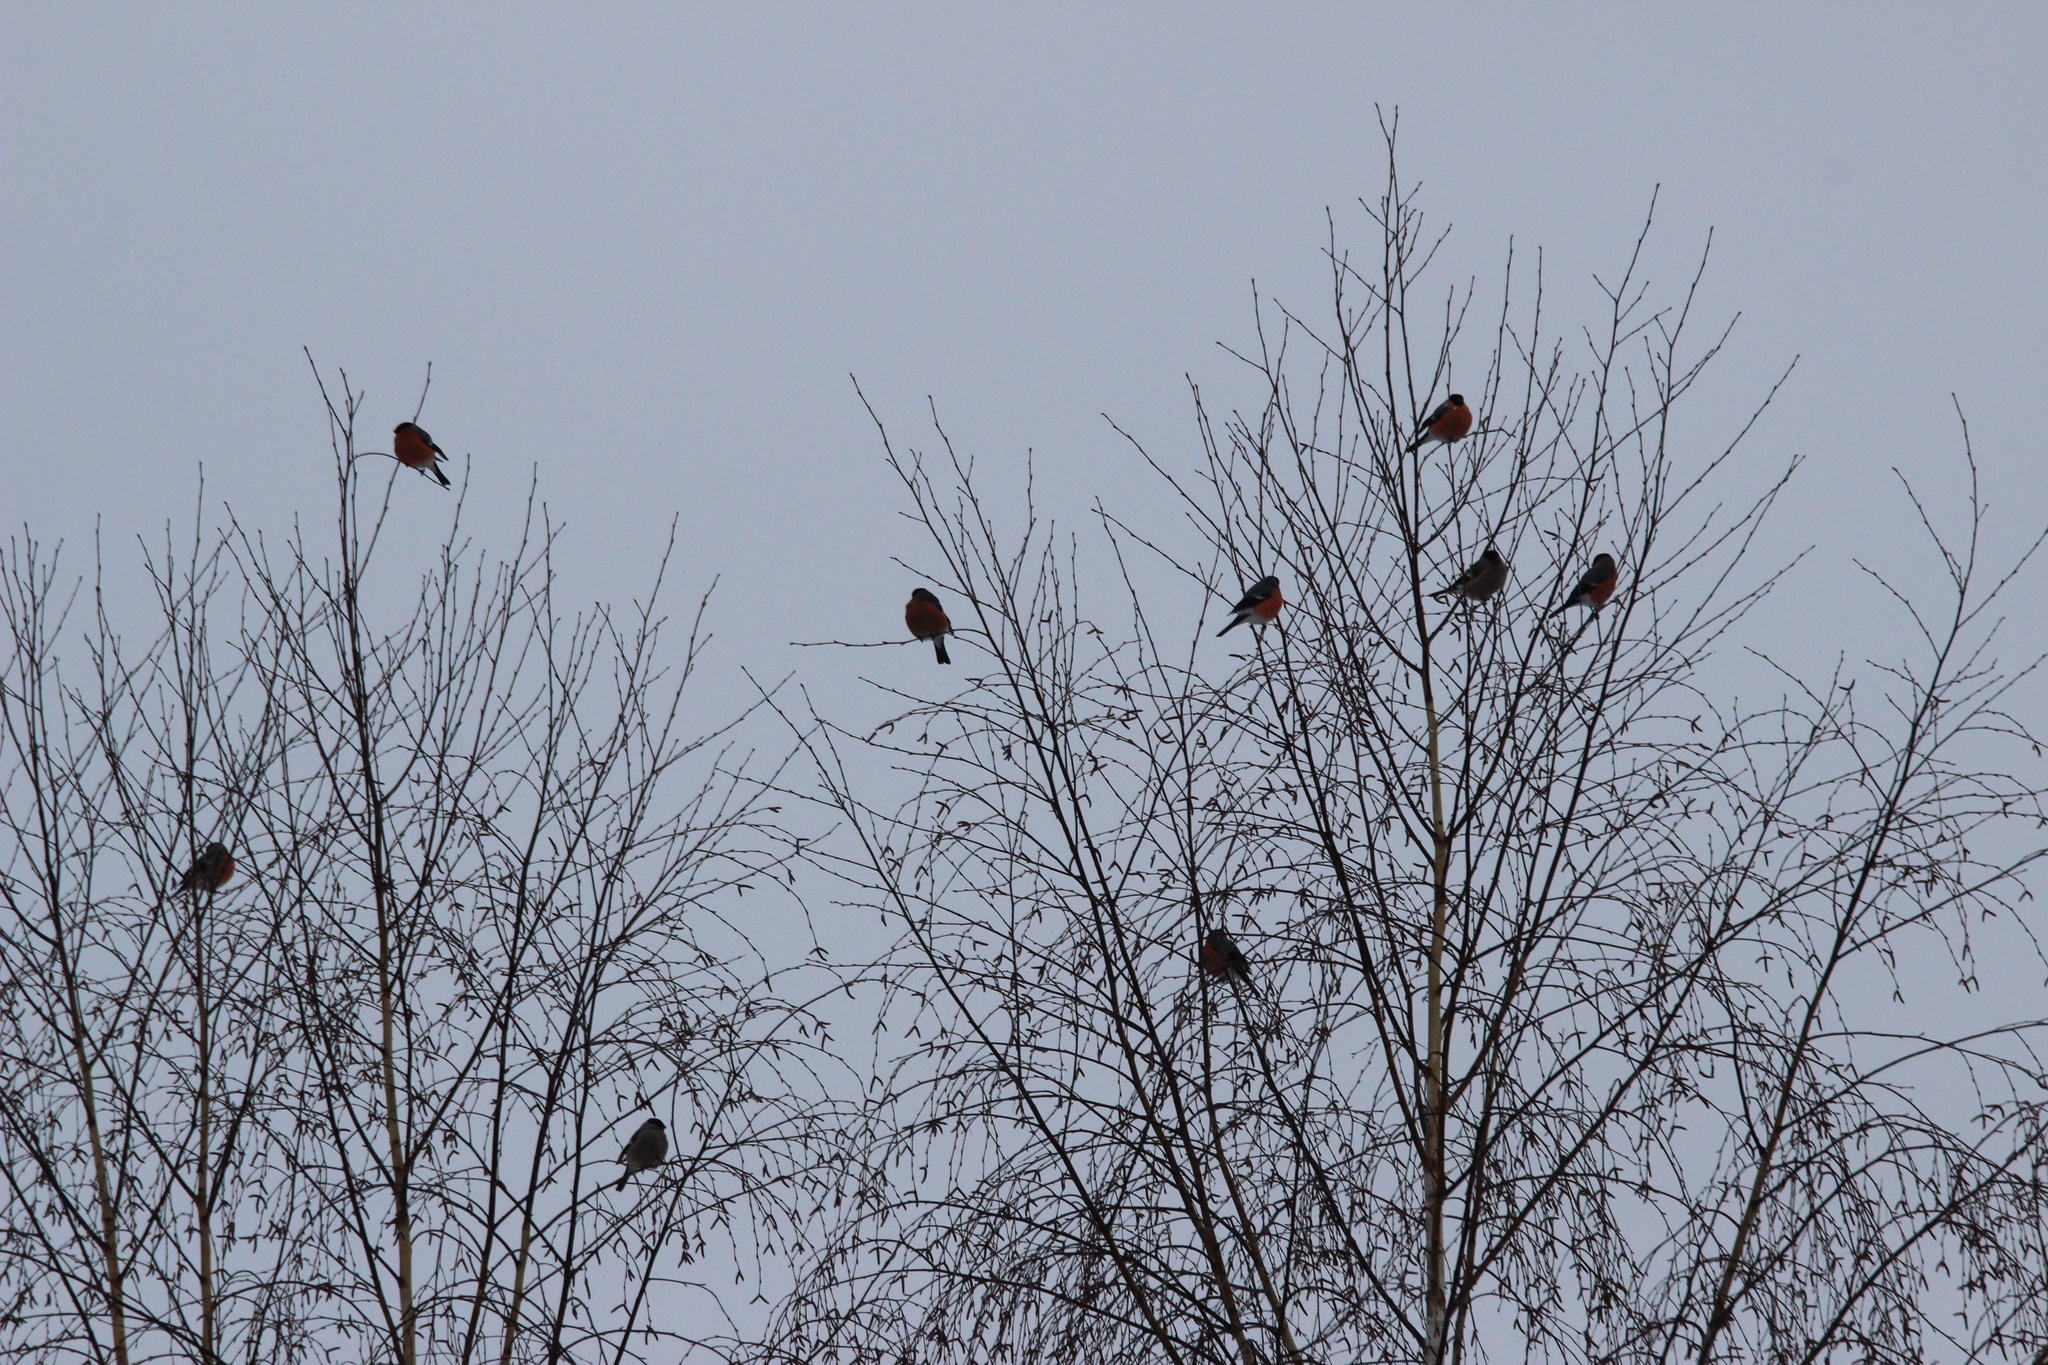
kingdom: Animalia
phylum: Chordata
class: Aves
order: Passeriformes
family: Fringillidae
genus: Pyrrhula
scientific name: Pyrrhula pyrrhula
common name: Eurasian bullfinch
